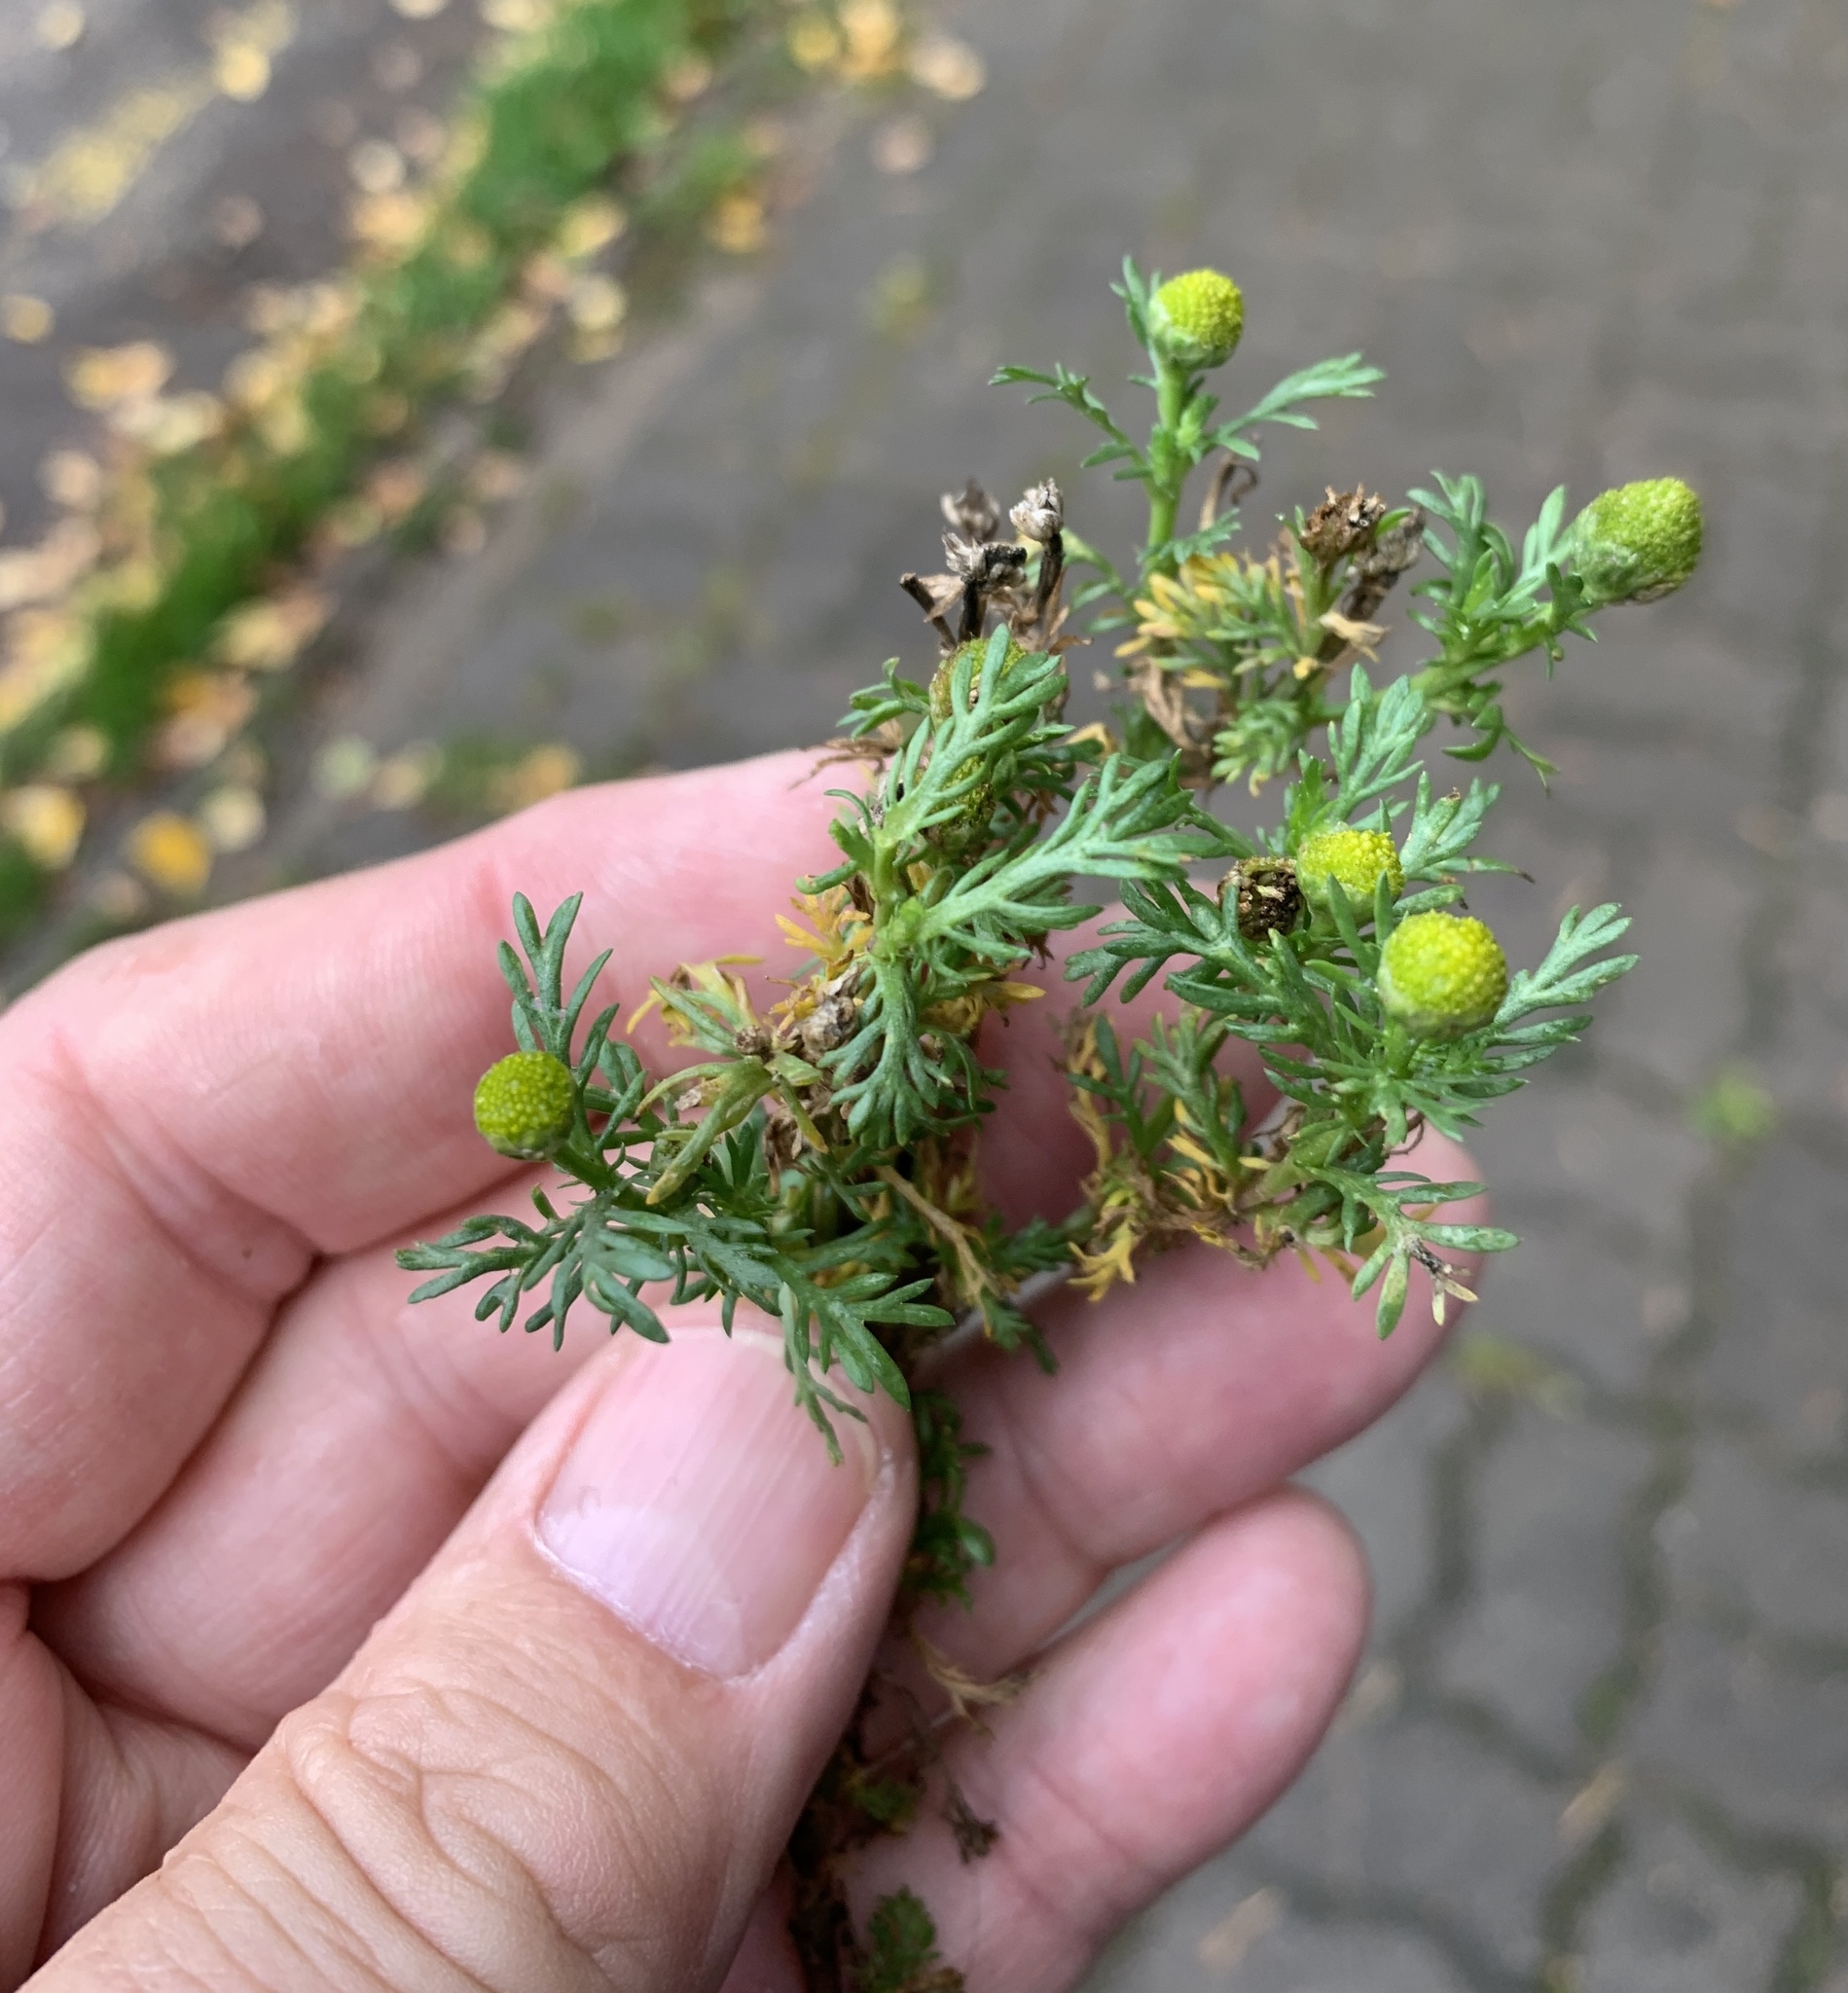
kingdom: Plantae
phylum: Tracheophyta
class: Magnoliopsida
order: Asterales
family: Asteraceae
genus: Matricaria
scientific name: Matricaria discoidea
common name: Disc mayweed
